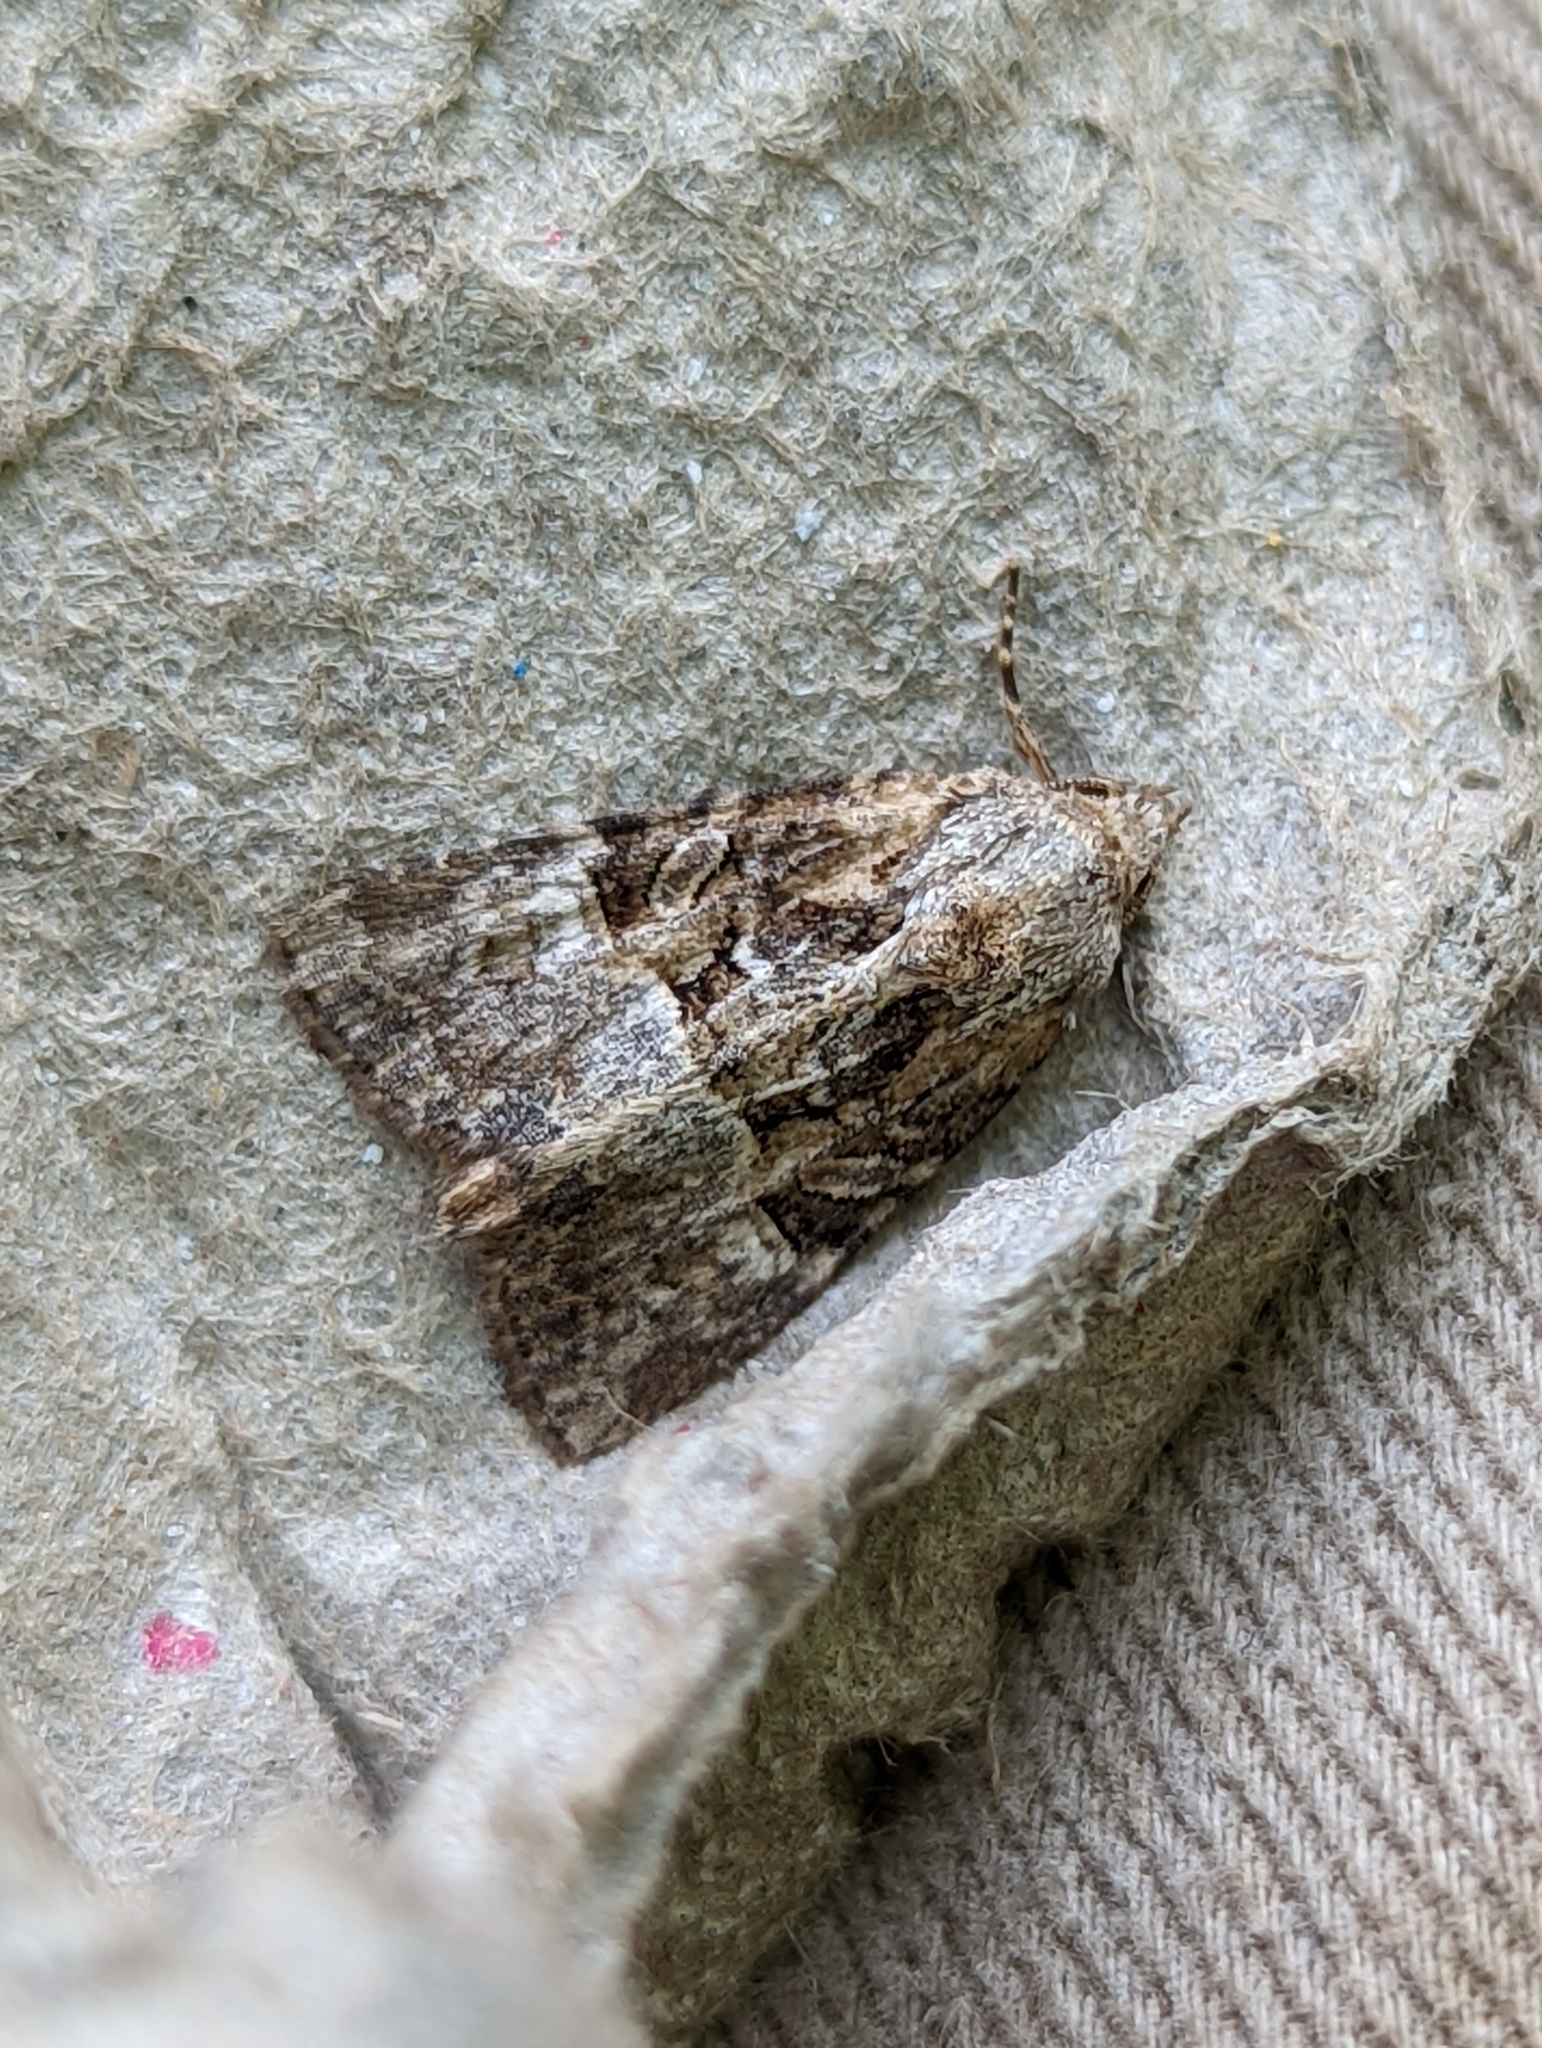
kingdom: Animalia
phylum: Arthropoda
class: Insecta
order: Lepidoptera
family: Noctuidae
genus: Mesoligia
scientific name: Mesoligia furuncula
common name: Cloaked minor
